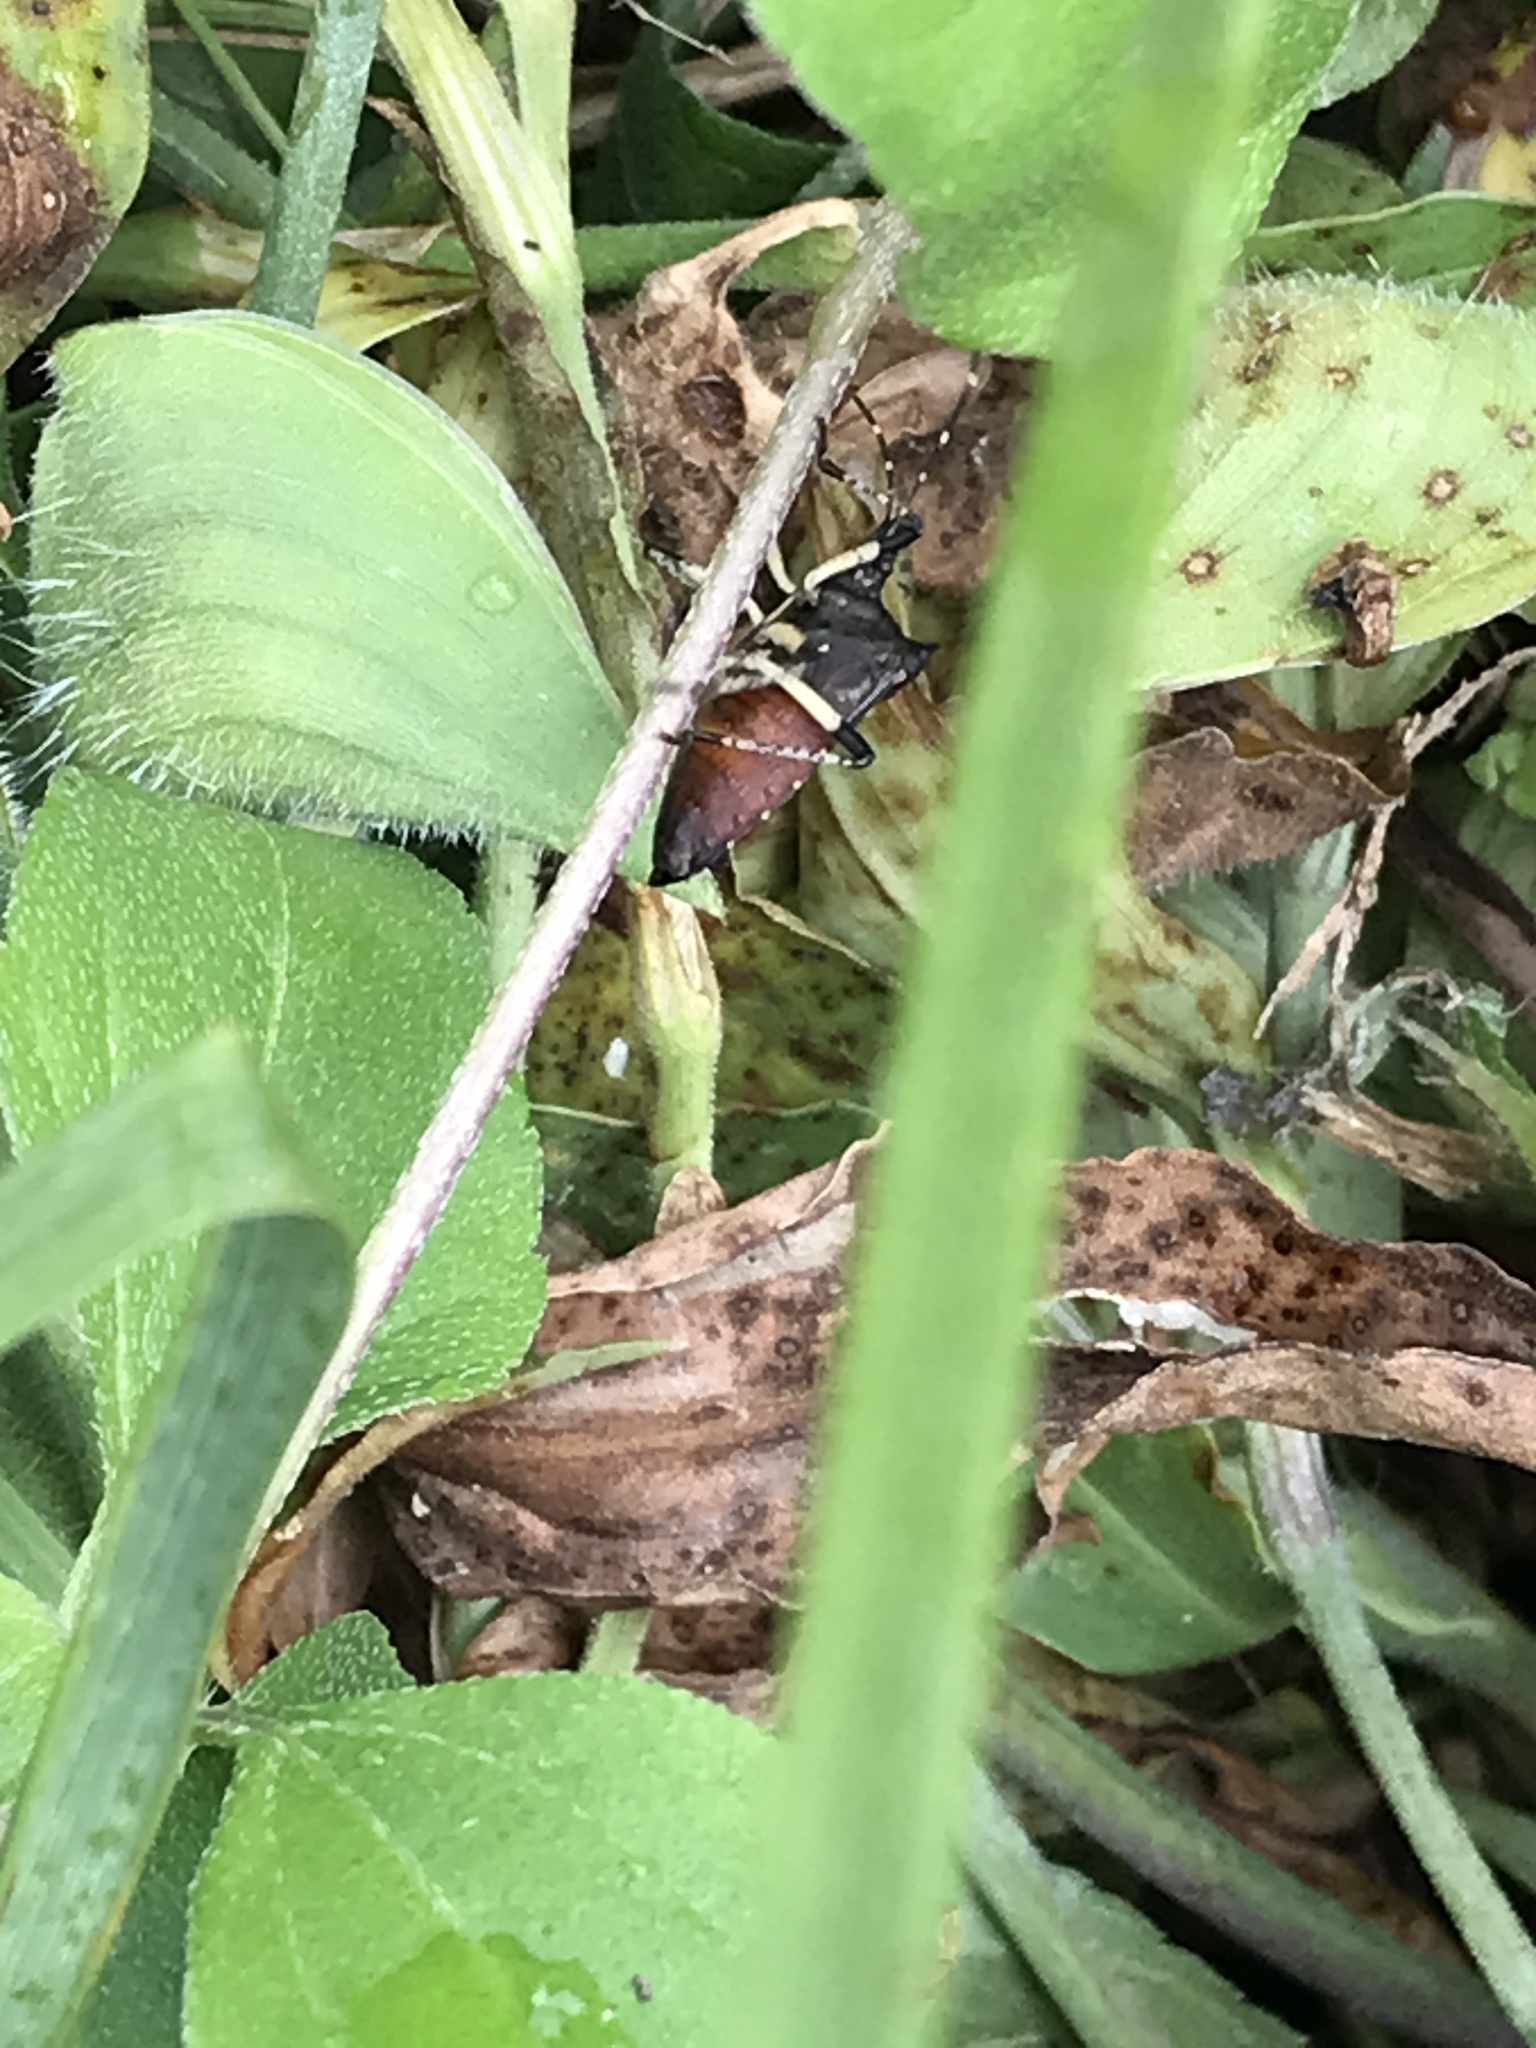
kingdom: Animalia
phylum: Arthropoda
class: Insecta
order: Hemiptera
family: Pentatomidae
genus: Proxys
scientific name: Proxys punctulatus
